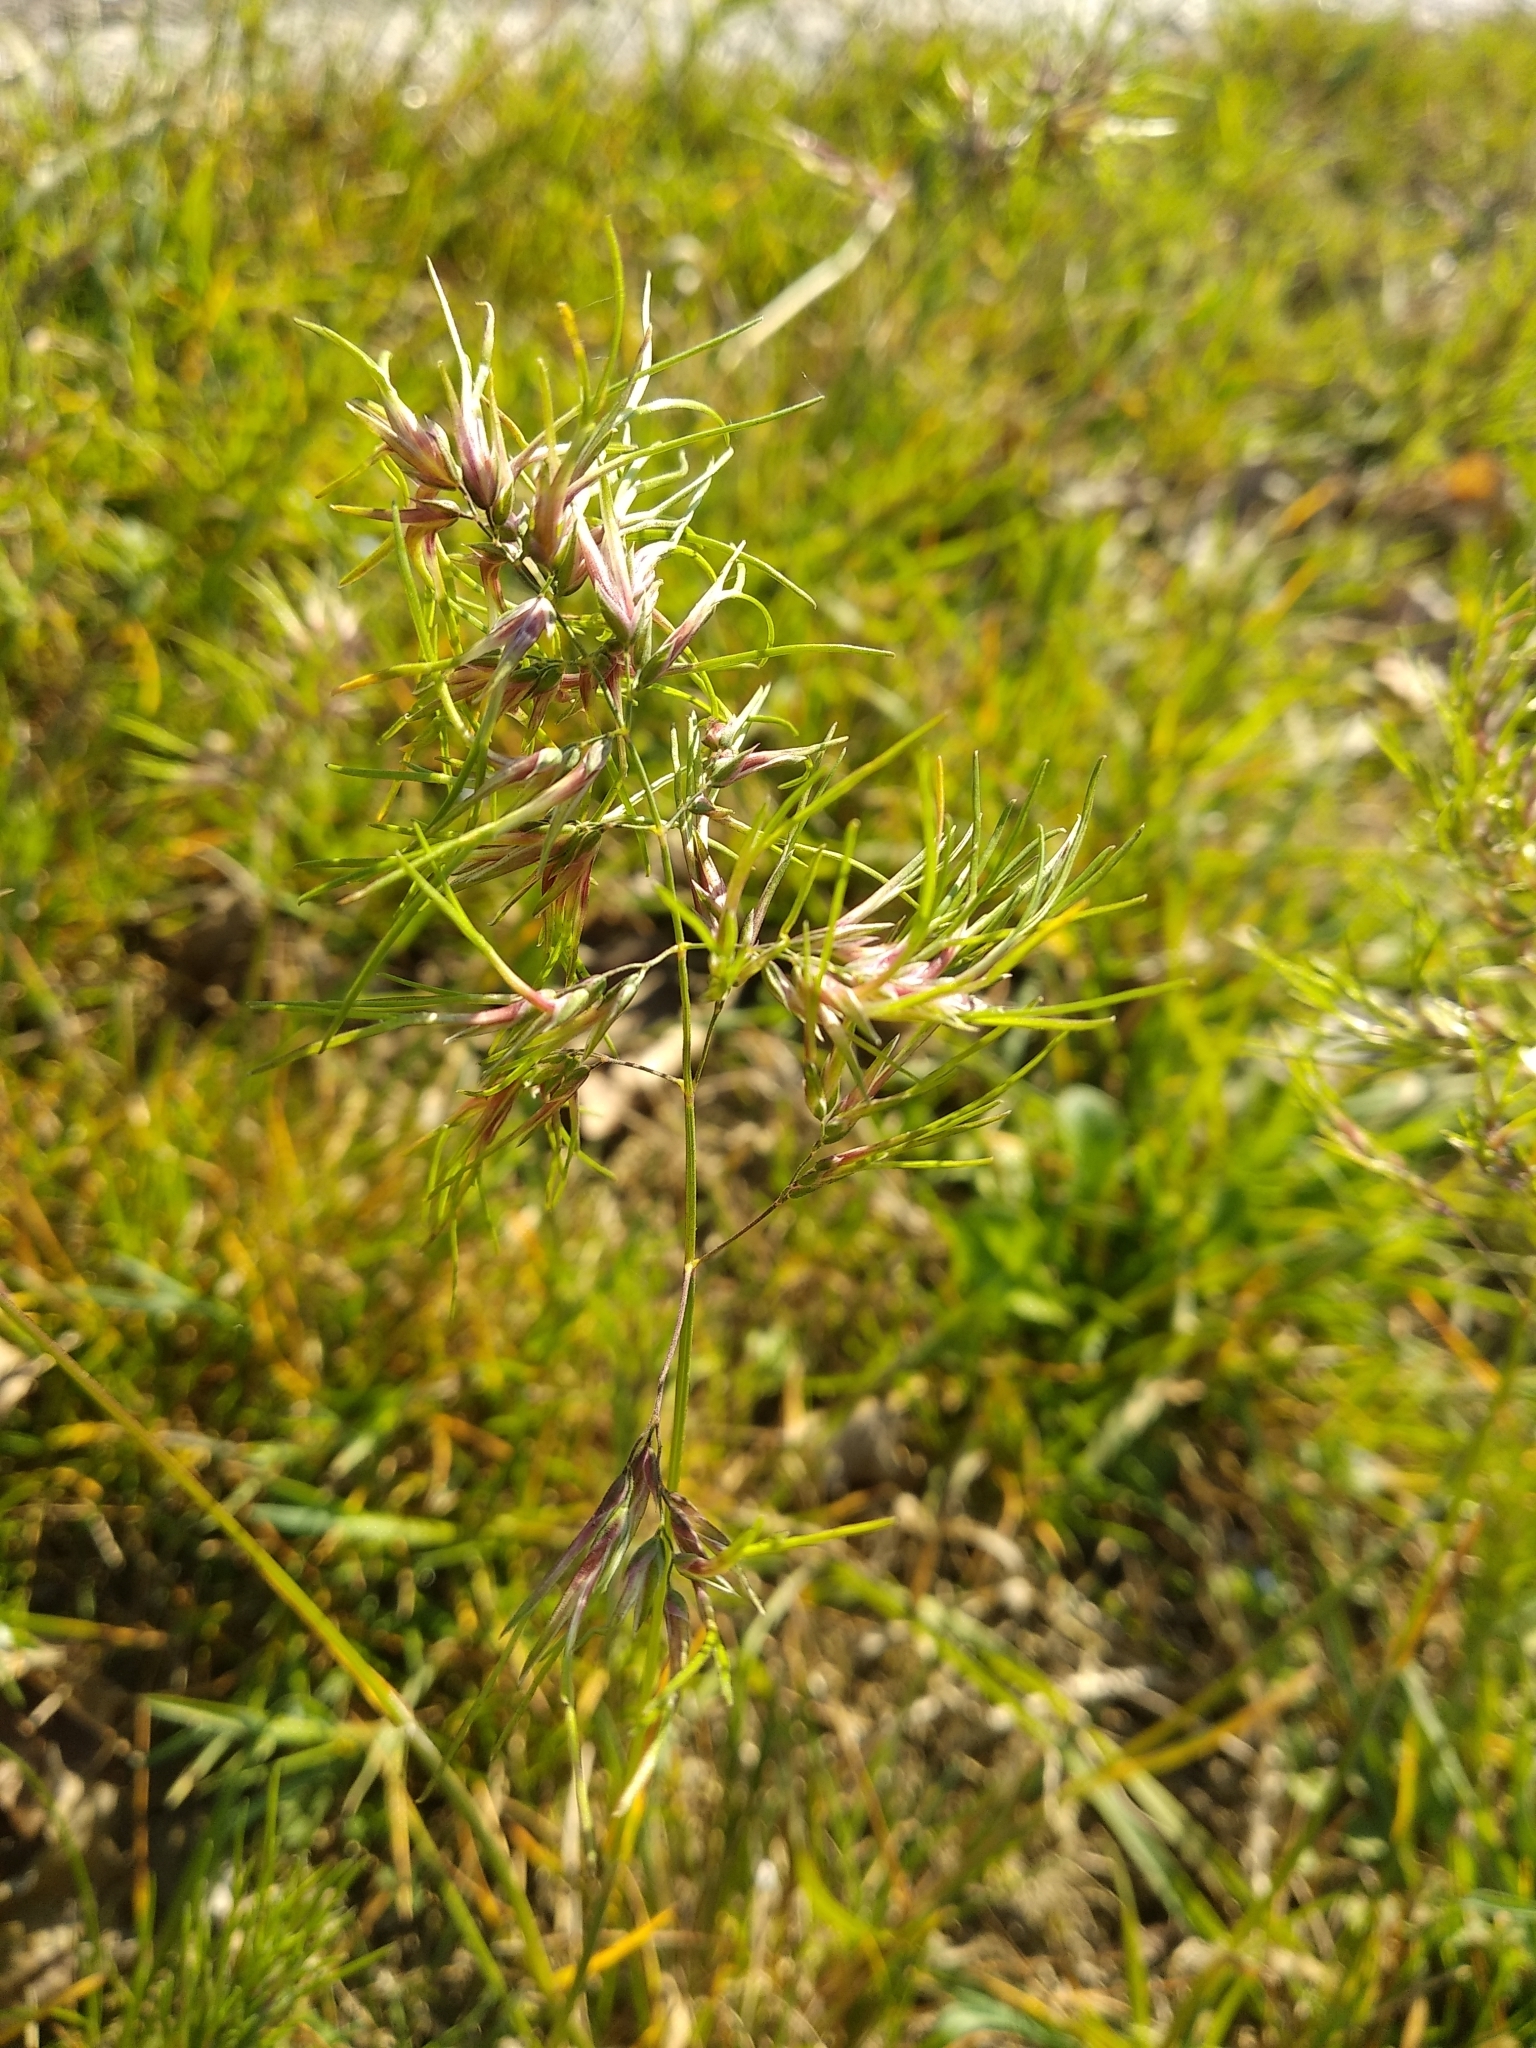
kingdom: Plantae
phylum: Tracheophyta
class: Liliopsida
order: Poales
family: Poaceae
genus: Poa
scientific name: Poa bulbosa
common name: Bulbous bluegrass
